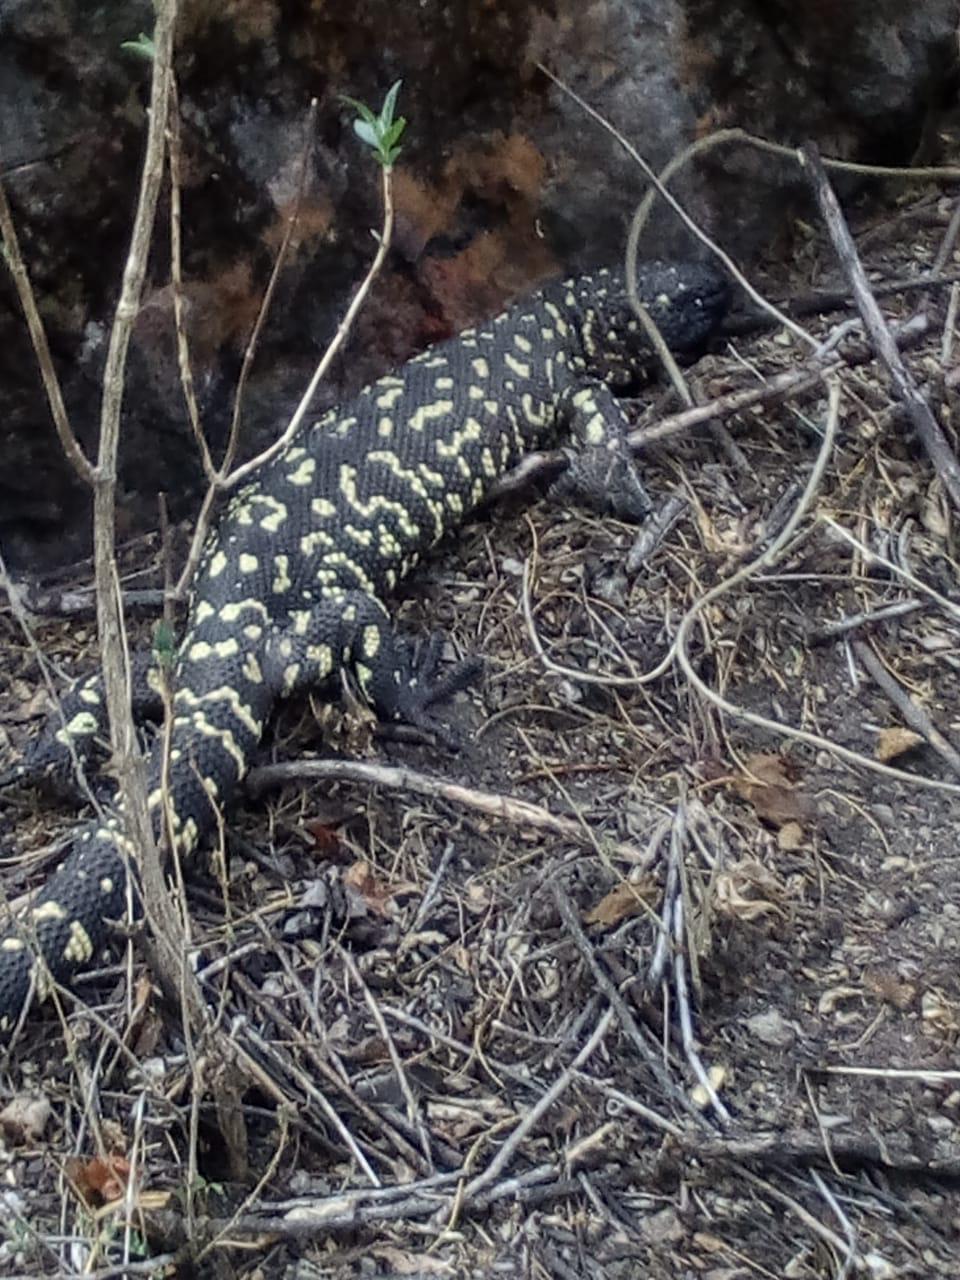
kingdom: Animalia
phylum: Chordata
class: Squamata
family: Helodermatidae
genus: Heloderma
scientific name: Heloderma horridum
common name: Mexican beaded lizard
